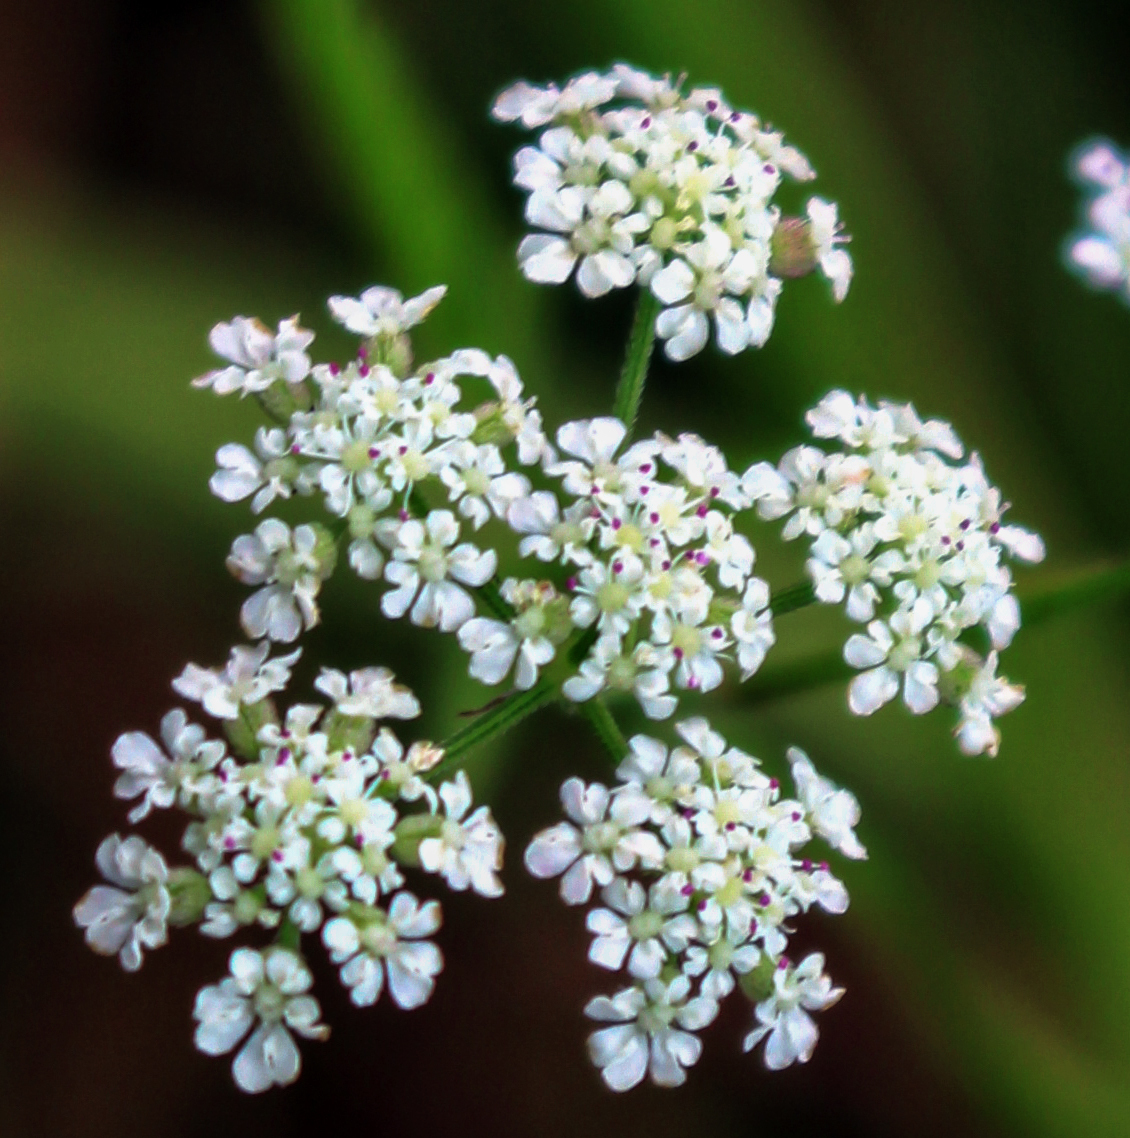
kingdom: Plantae
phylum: Tracheophyta
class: Magnoliopsida
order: Apiales
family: Apiaceae
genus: Torilis
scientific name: Torilis japonica
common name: Upright hedge-parsley
